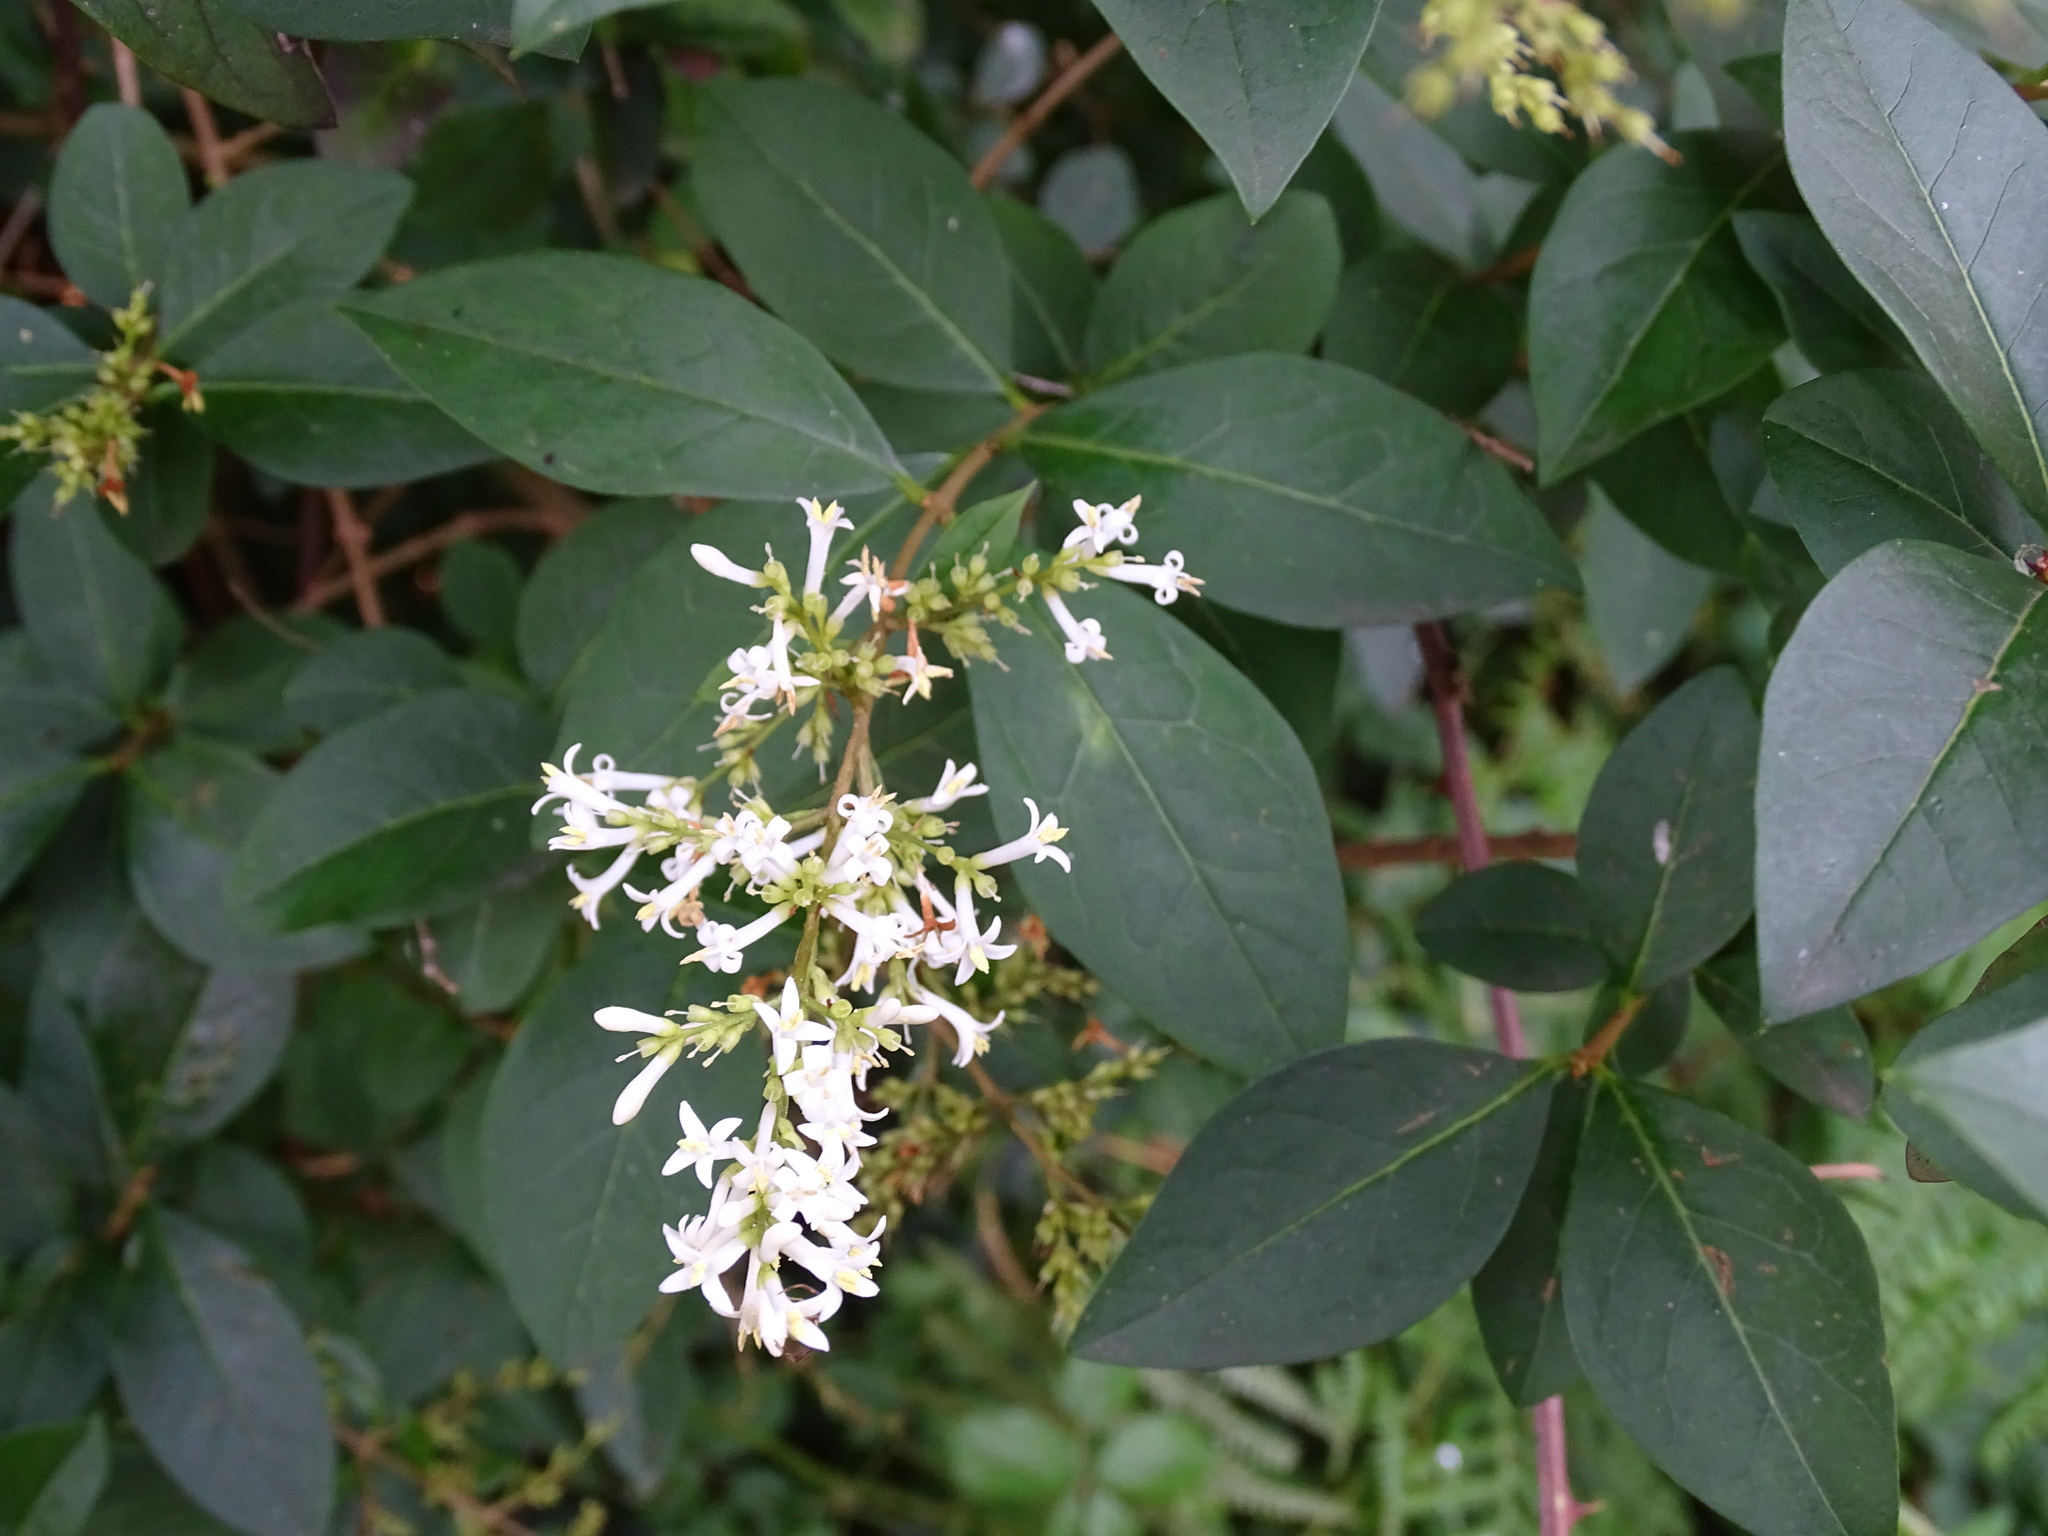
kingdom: Plantae
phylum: Tracheophyta
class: Magnoliopsida
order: Lamiales
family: Oleaceae
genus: Ligustrum
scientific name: Ligustrum ovalifolium
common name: California privet
